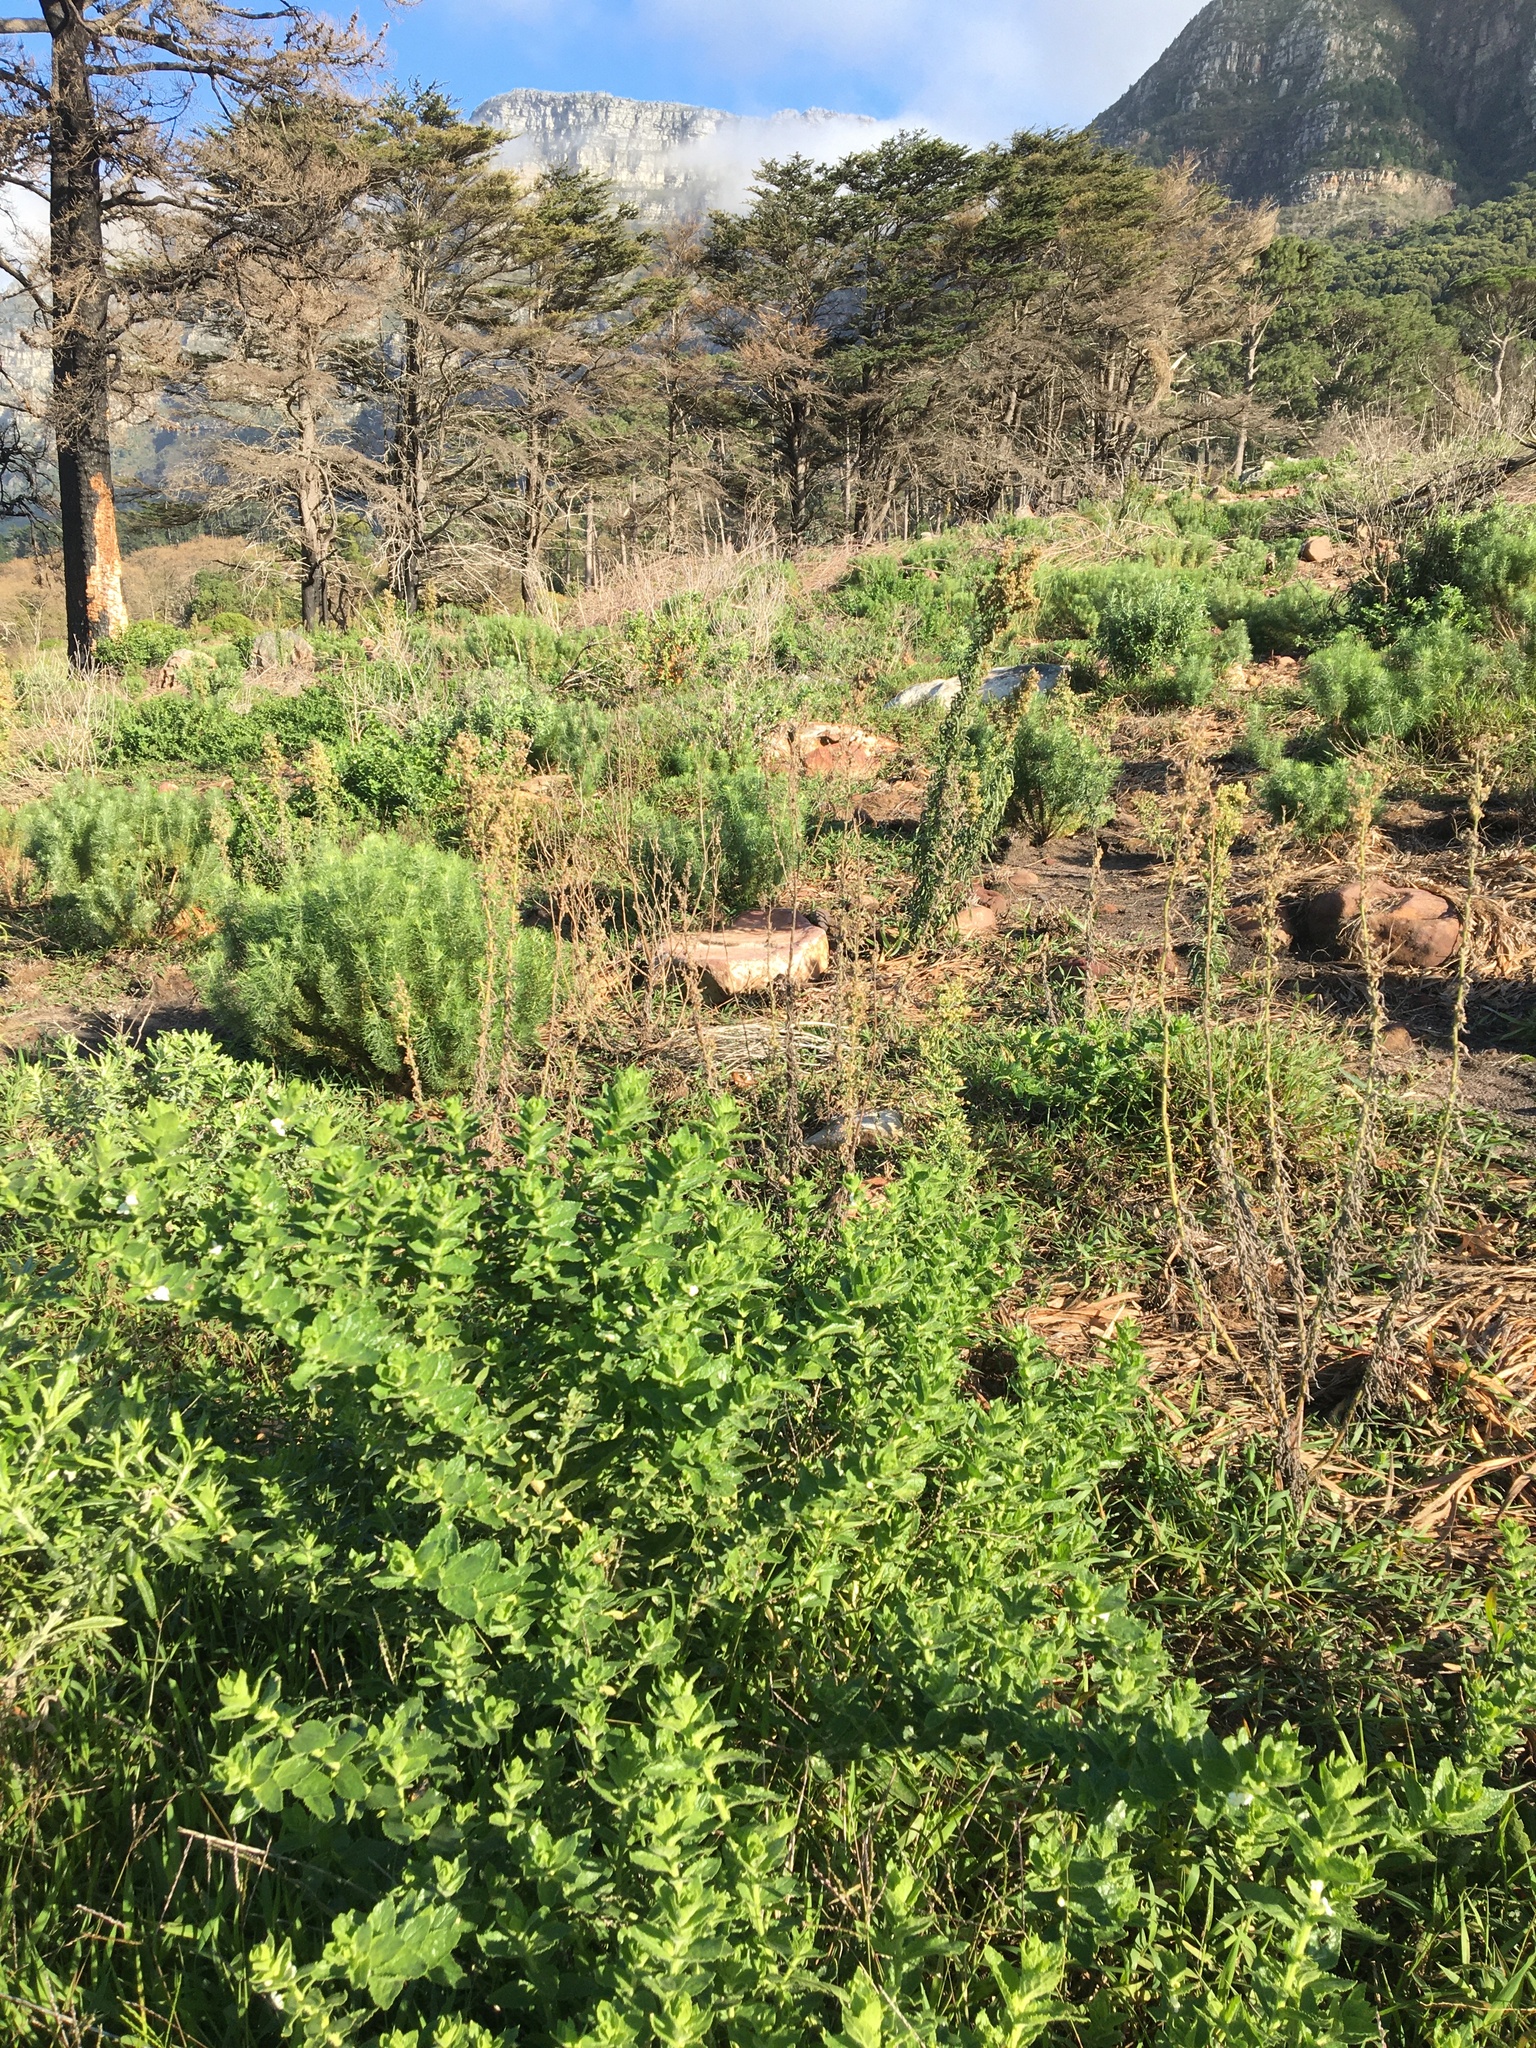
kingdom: Plantae
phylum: Tracheophyta
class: Magnoliopsida
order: Lamiales
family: Scrophulariaceae
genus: Oftia
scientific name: Oftia africana
